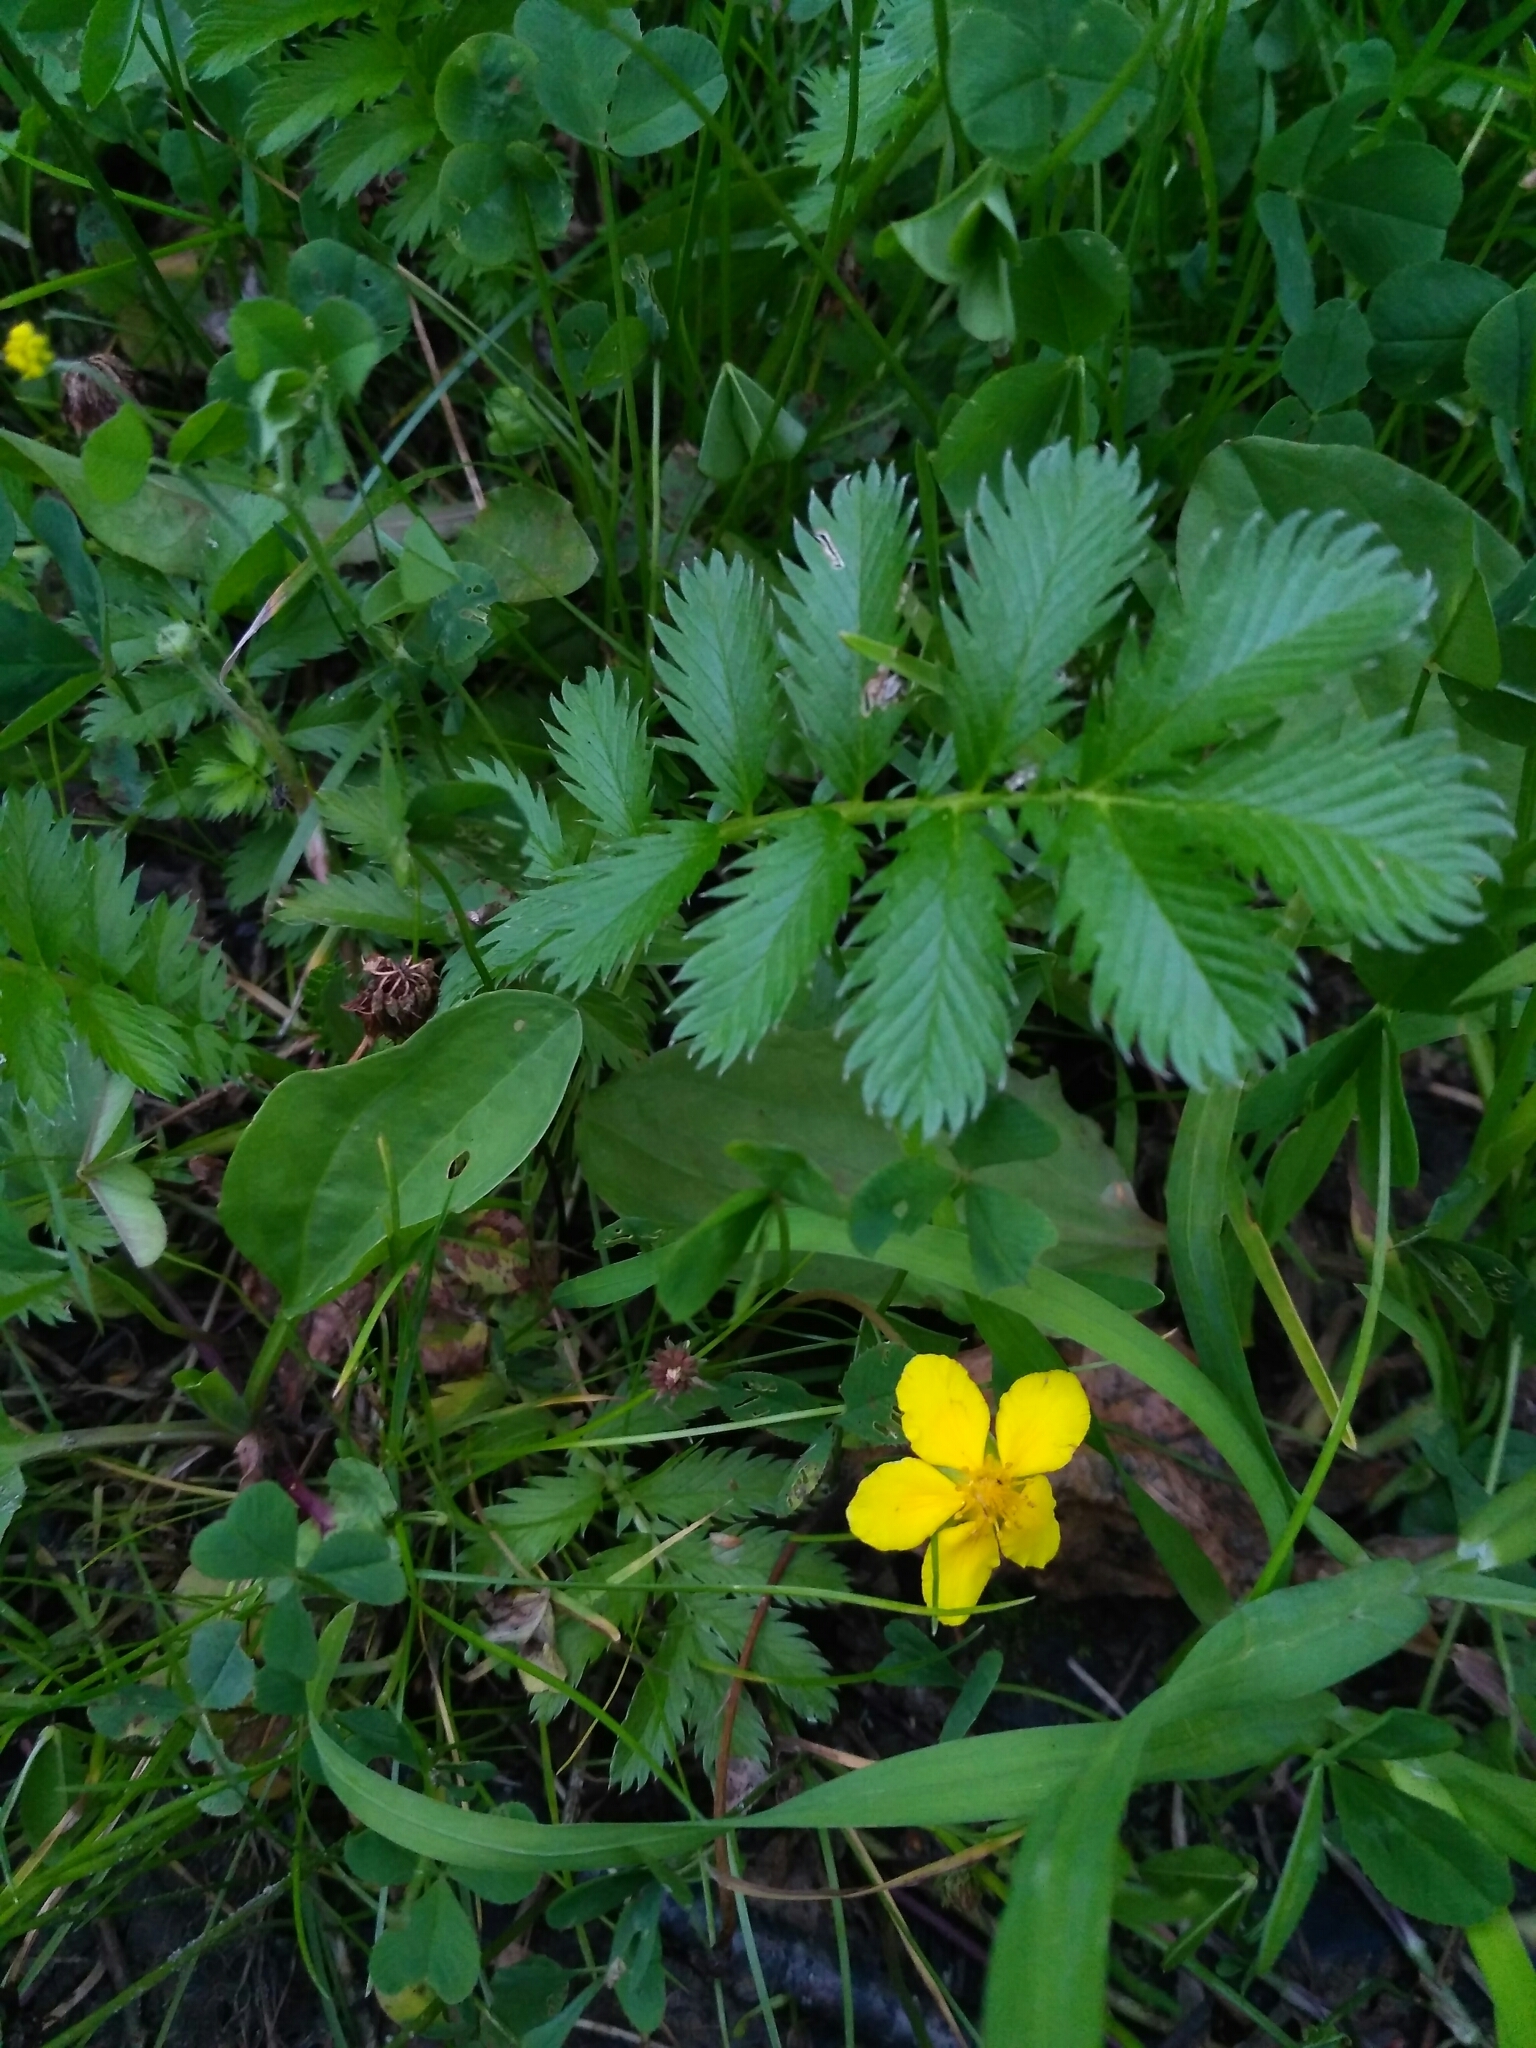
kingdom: Plantae
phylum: Tracheophyta
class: Magnoliopsida
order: Rosales
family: Rosaceae
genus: Argentina
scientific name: Argentina anserina
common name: Common silverweed
